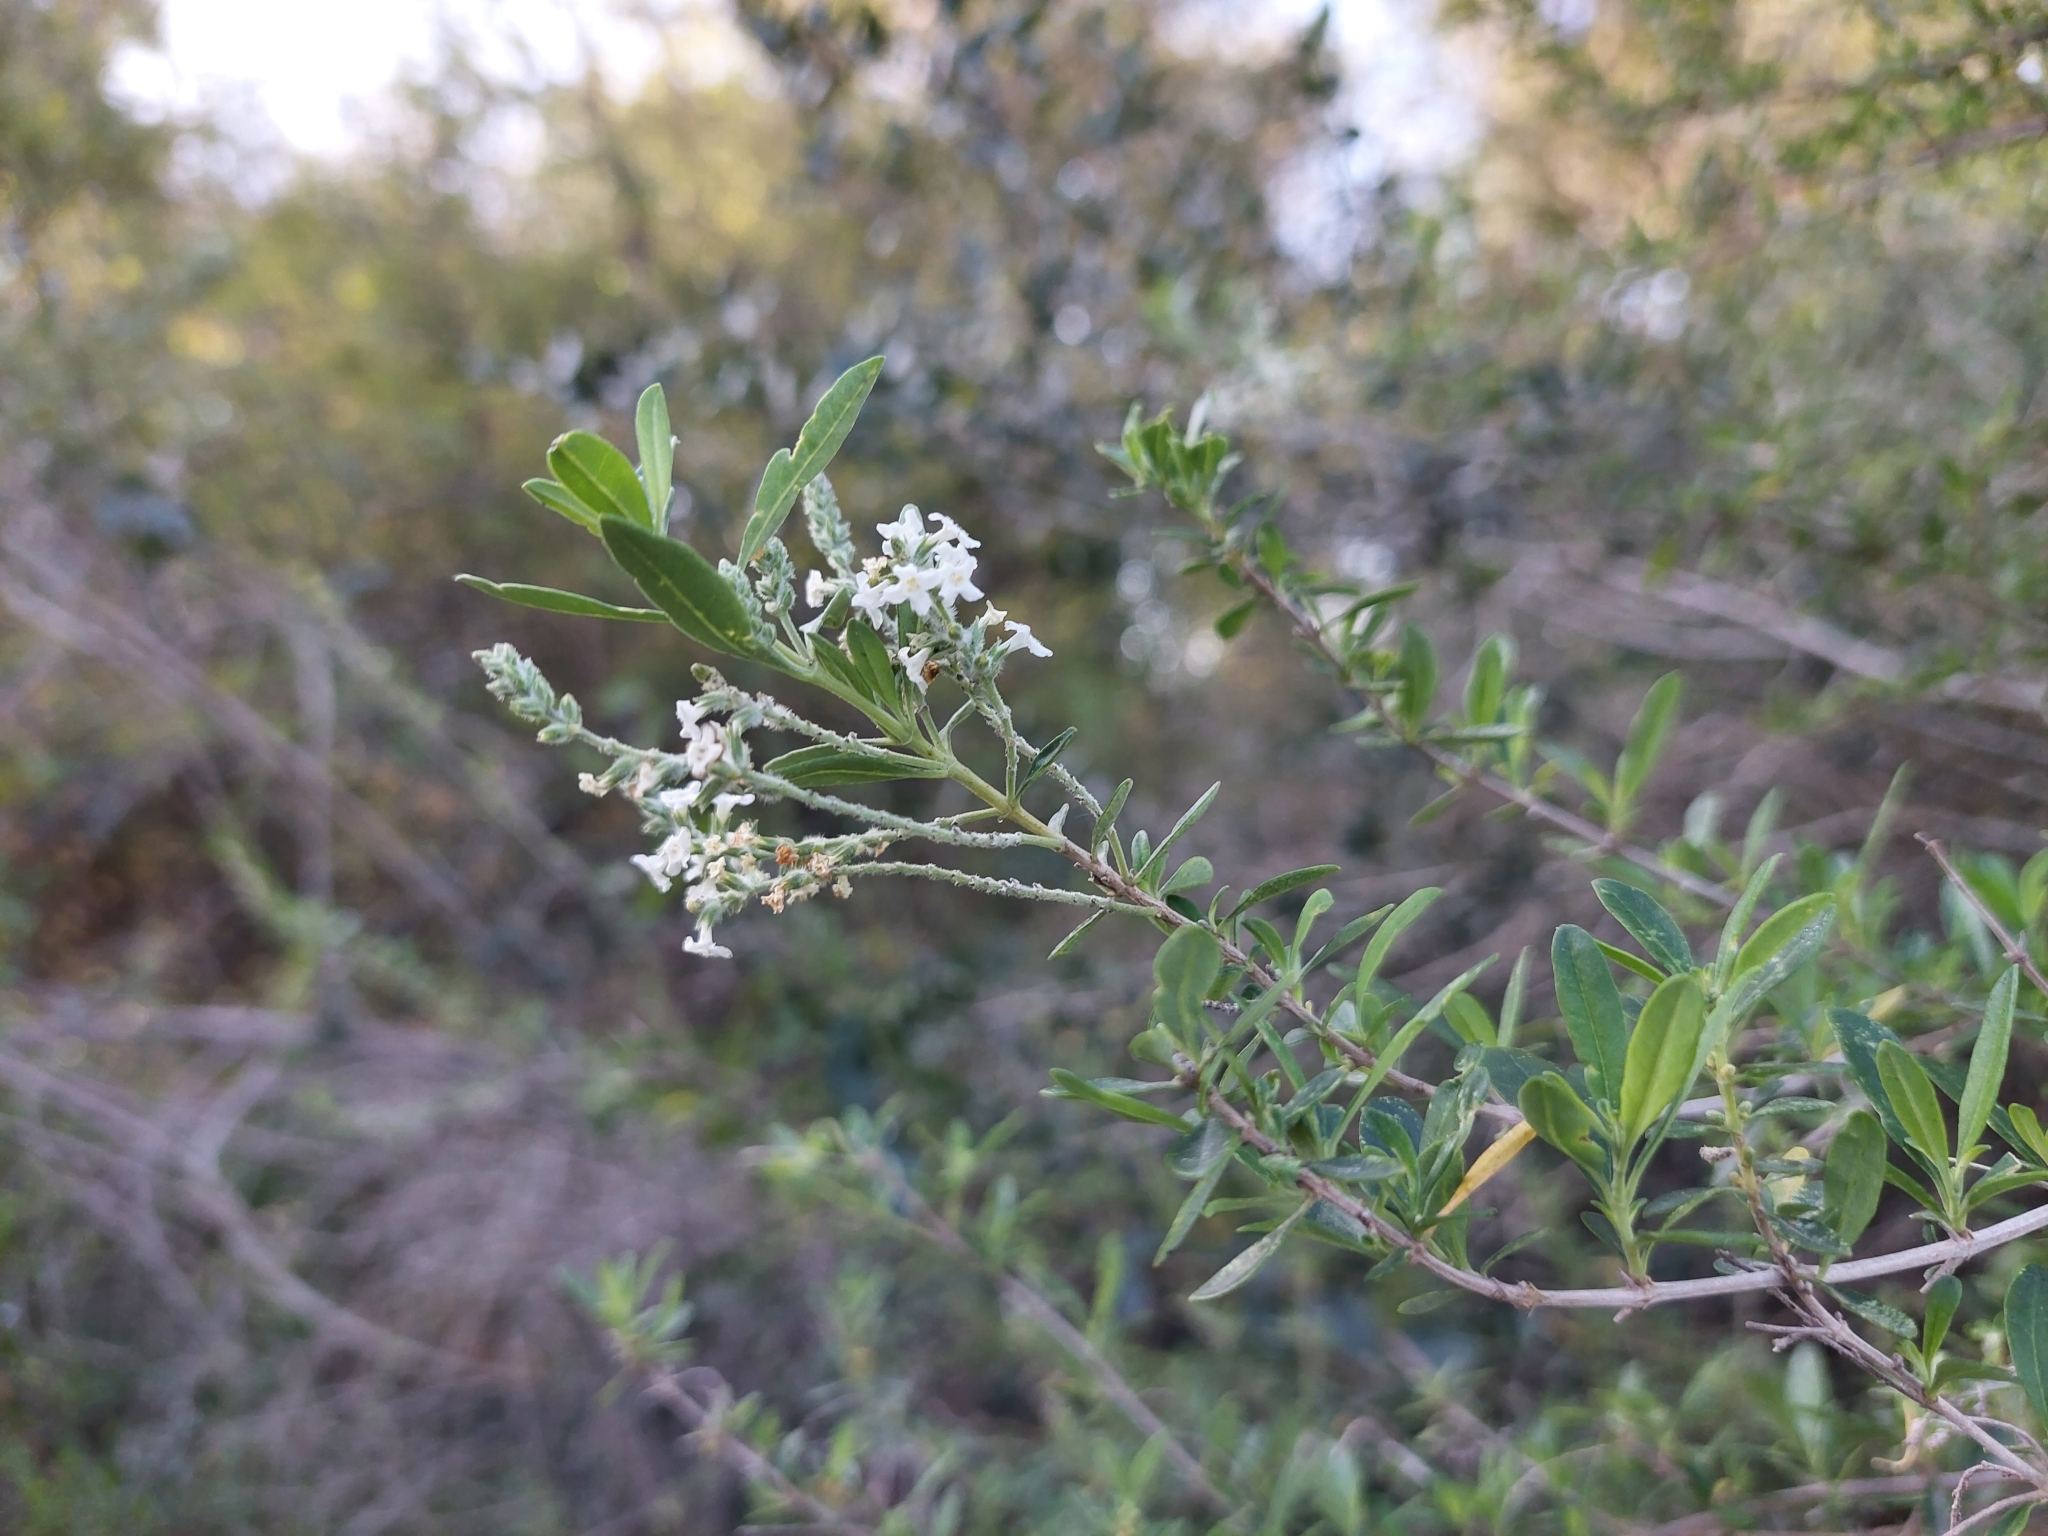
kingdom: Plantae
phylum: Tracheophyta
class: Magnoliopsida
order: Lamiales
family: Verbenaceae
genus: Aloysia
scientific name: Aloysia gratissima
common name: Common bee-brush
